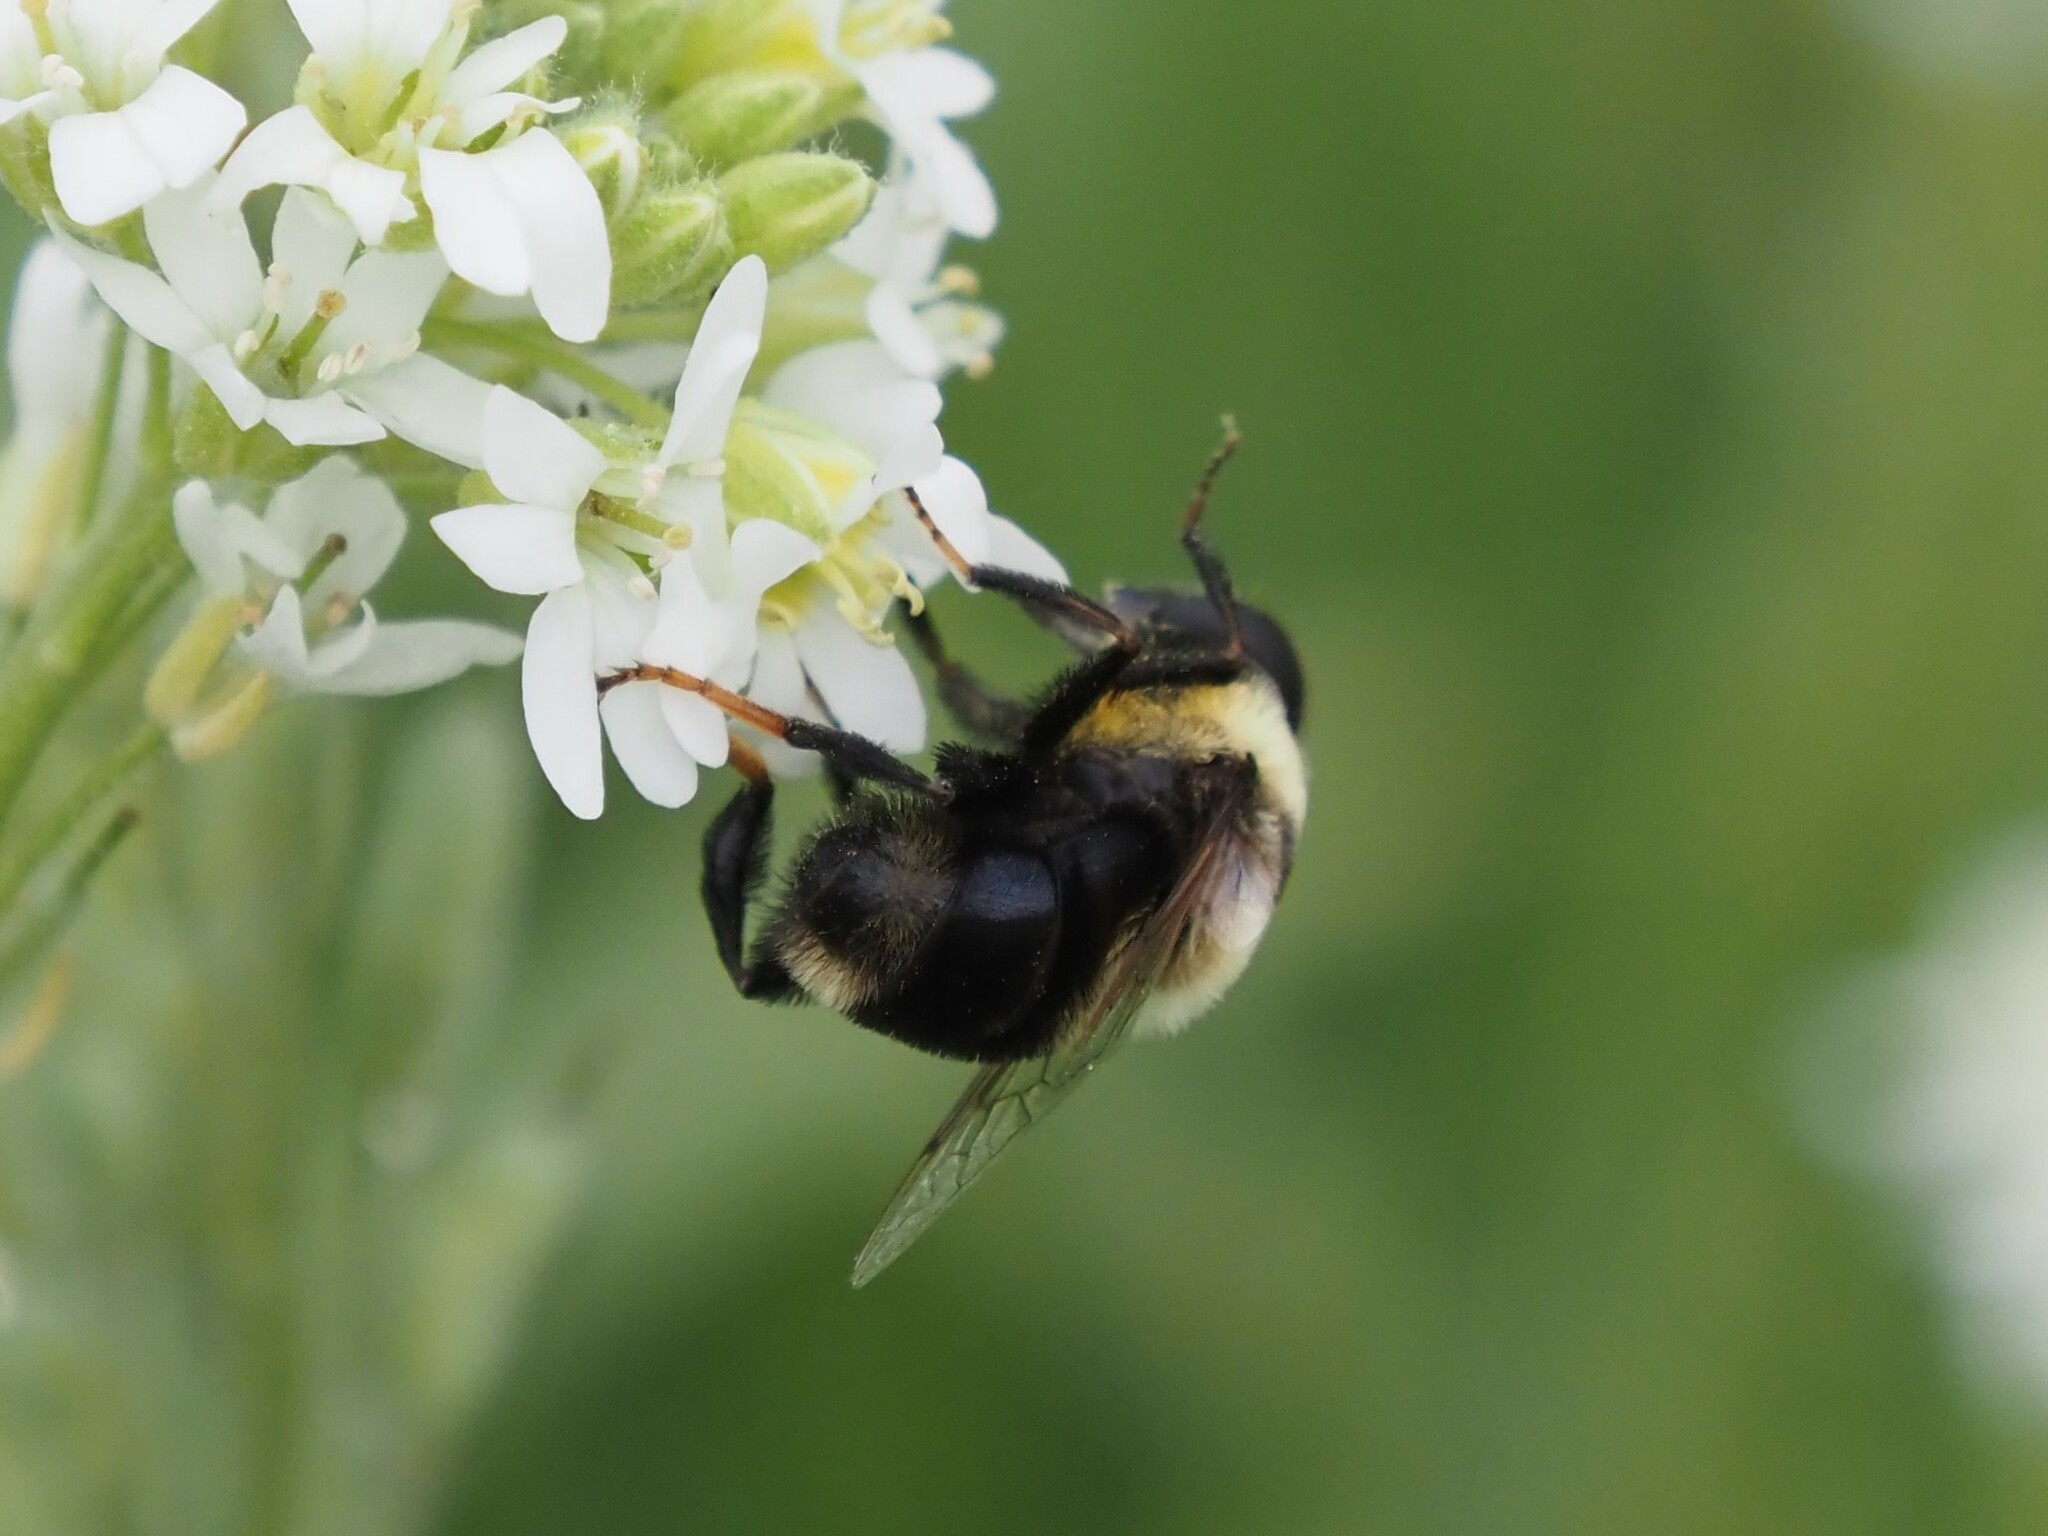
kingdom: Animalia
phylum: Arthropoda
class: Insecta
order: Diptera
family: Syrphidae
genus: Eristalis
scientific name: Eristalis flavipes
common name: Orange-legged drone fly
